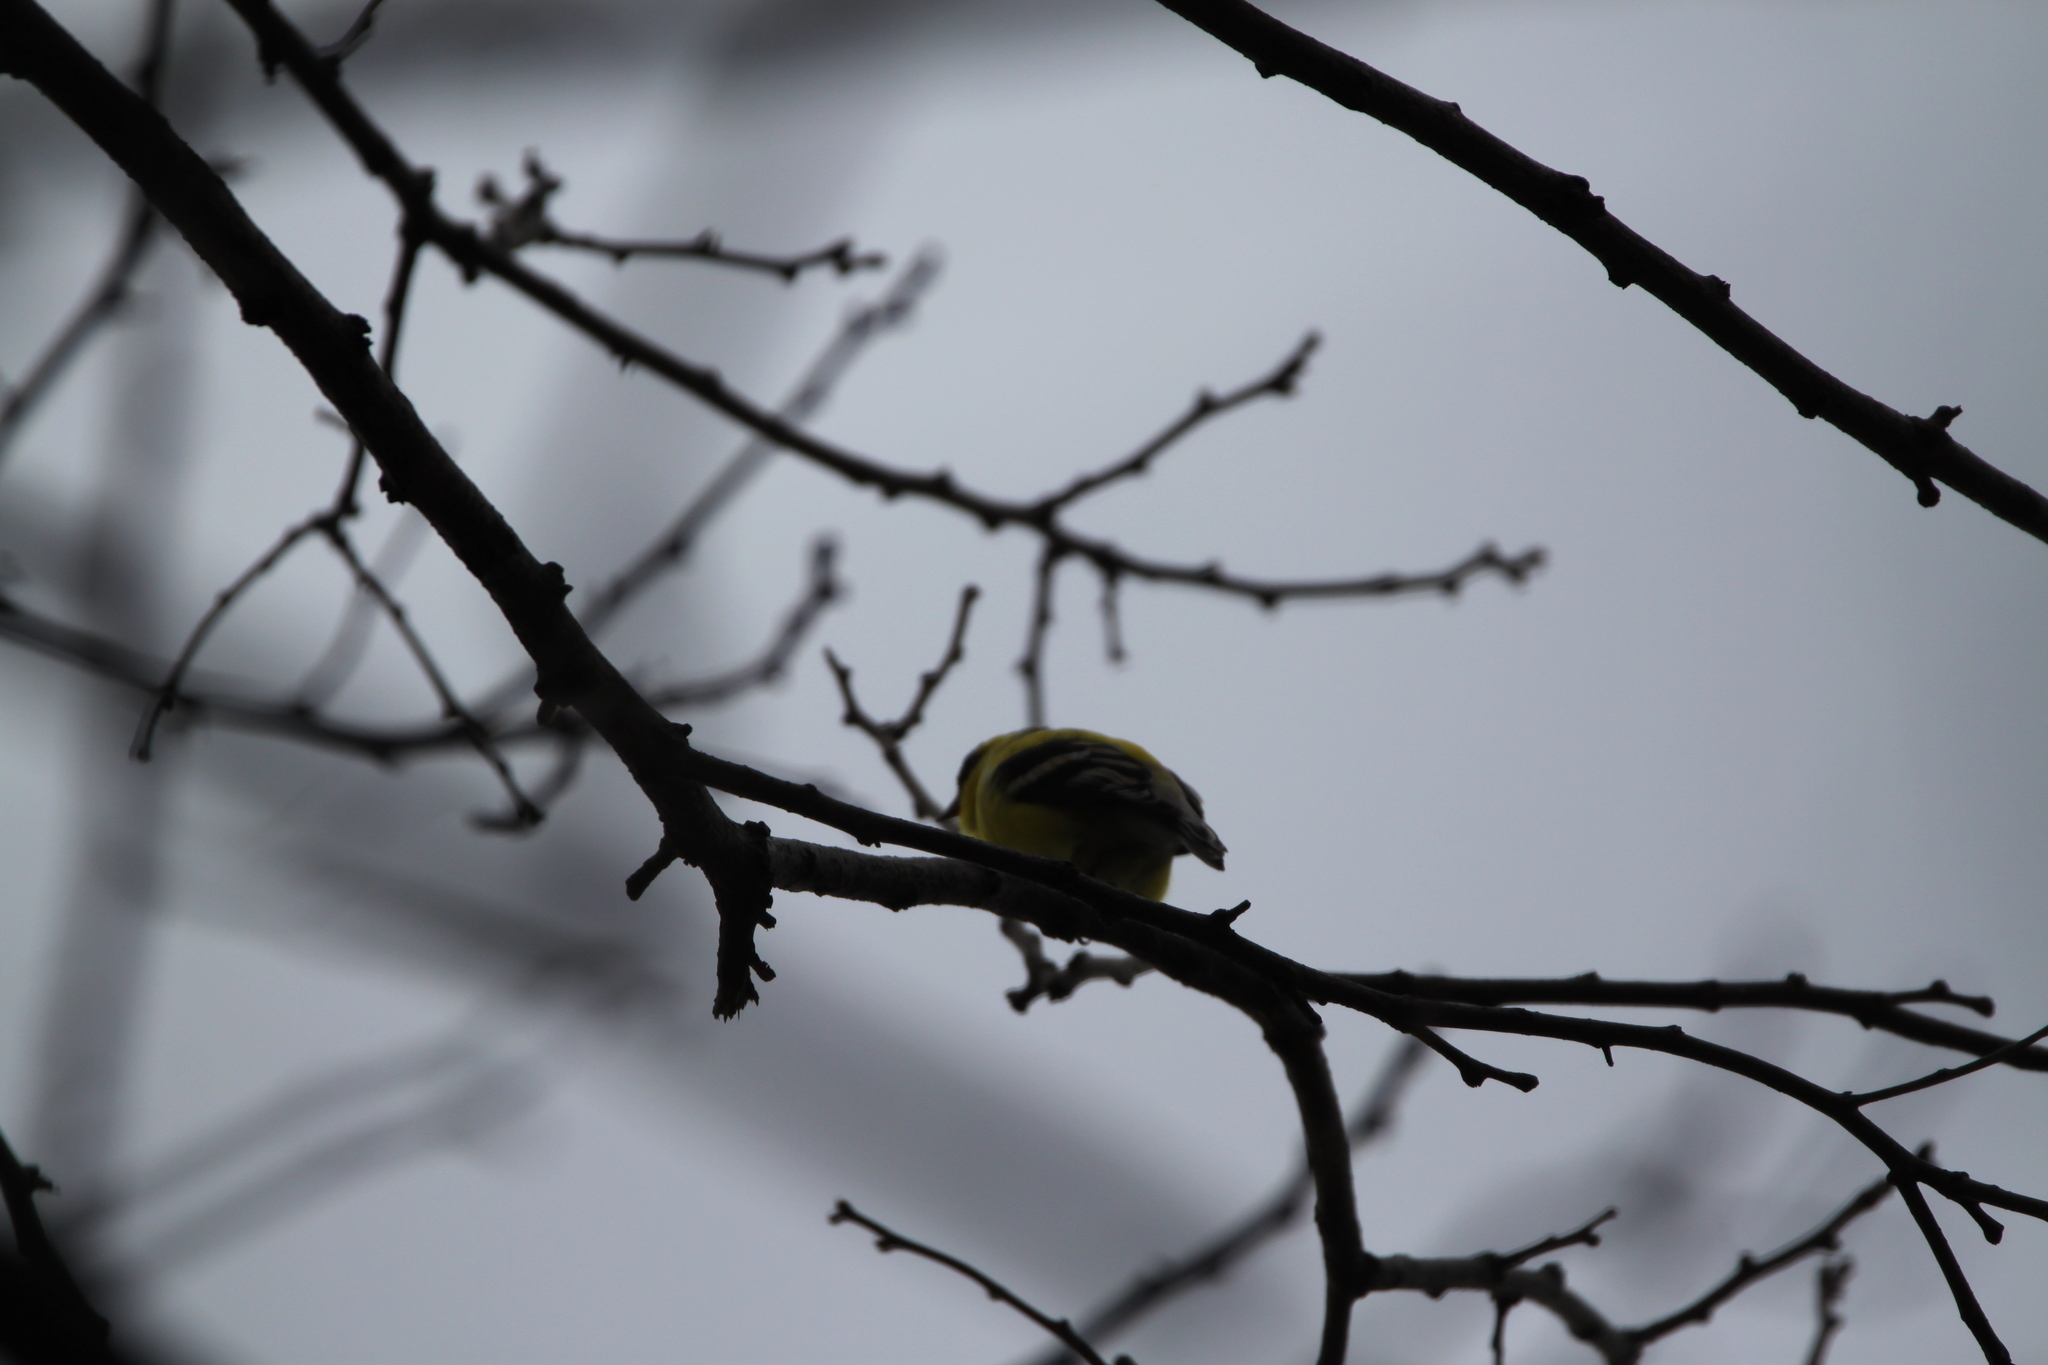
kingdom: Animalia
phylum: Chordata
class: Aves
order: Passeriformes
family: Fringillidae
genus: Spinus
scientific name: Spinus tristis
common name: American goldfinch
